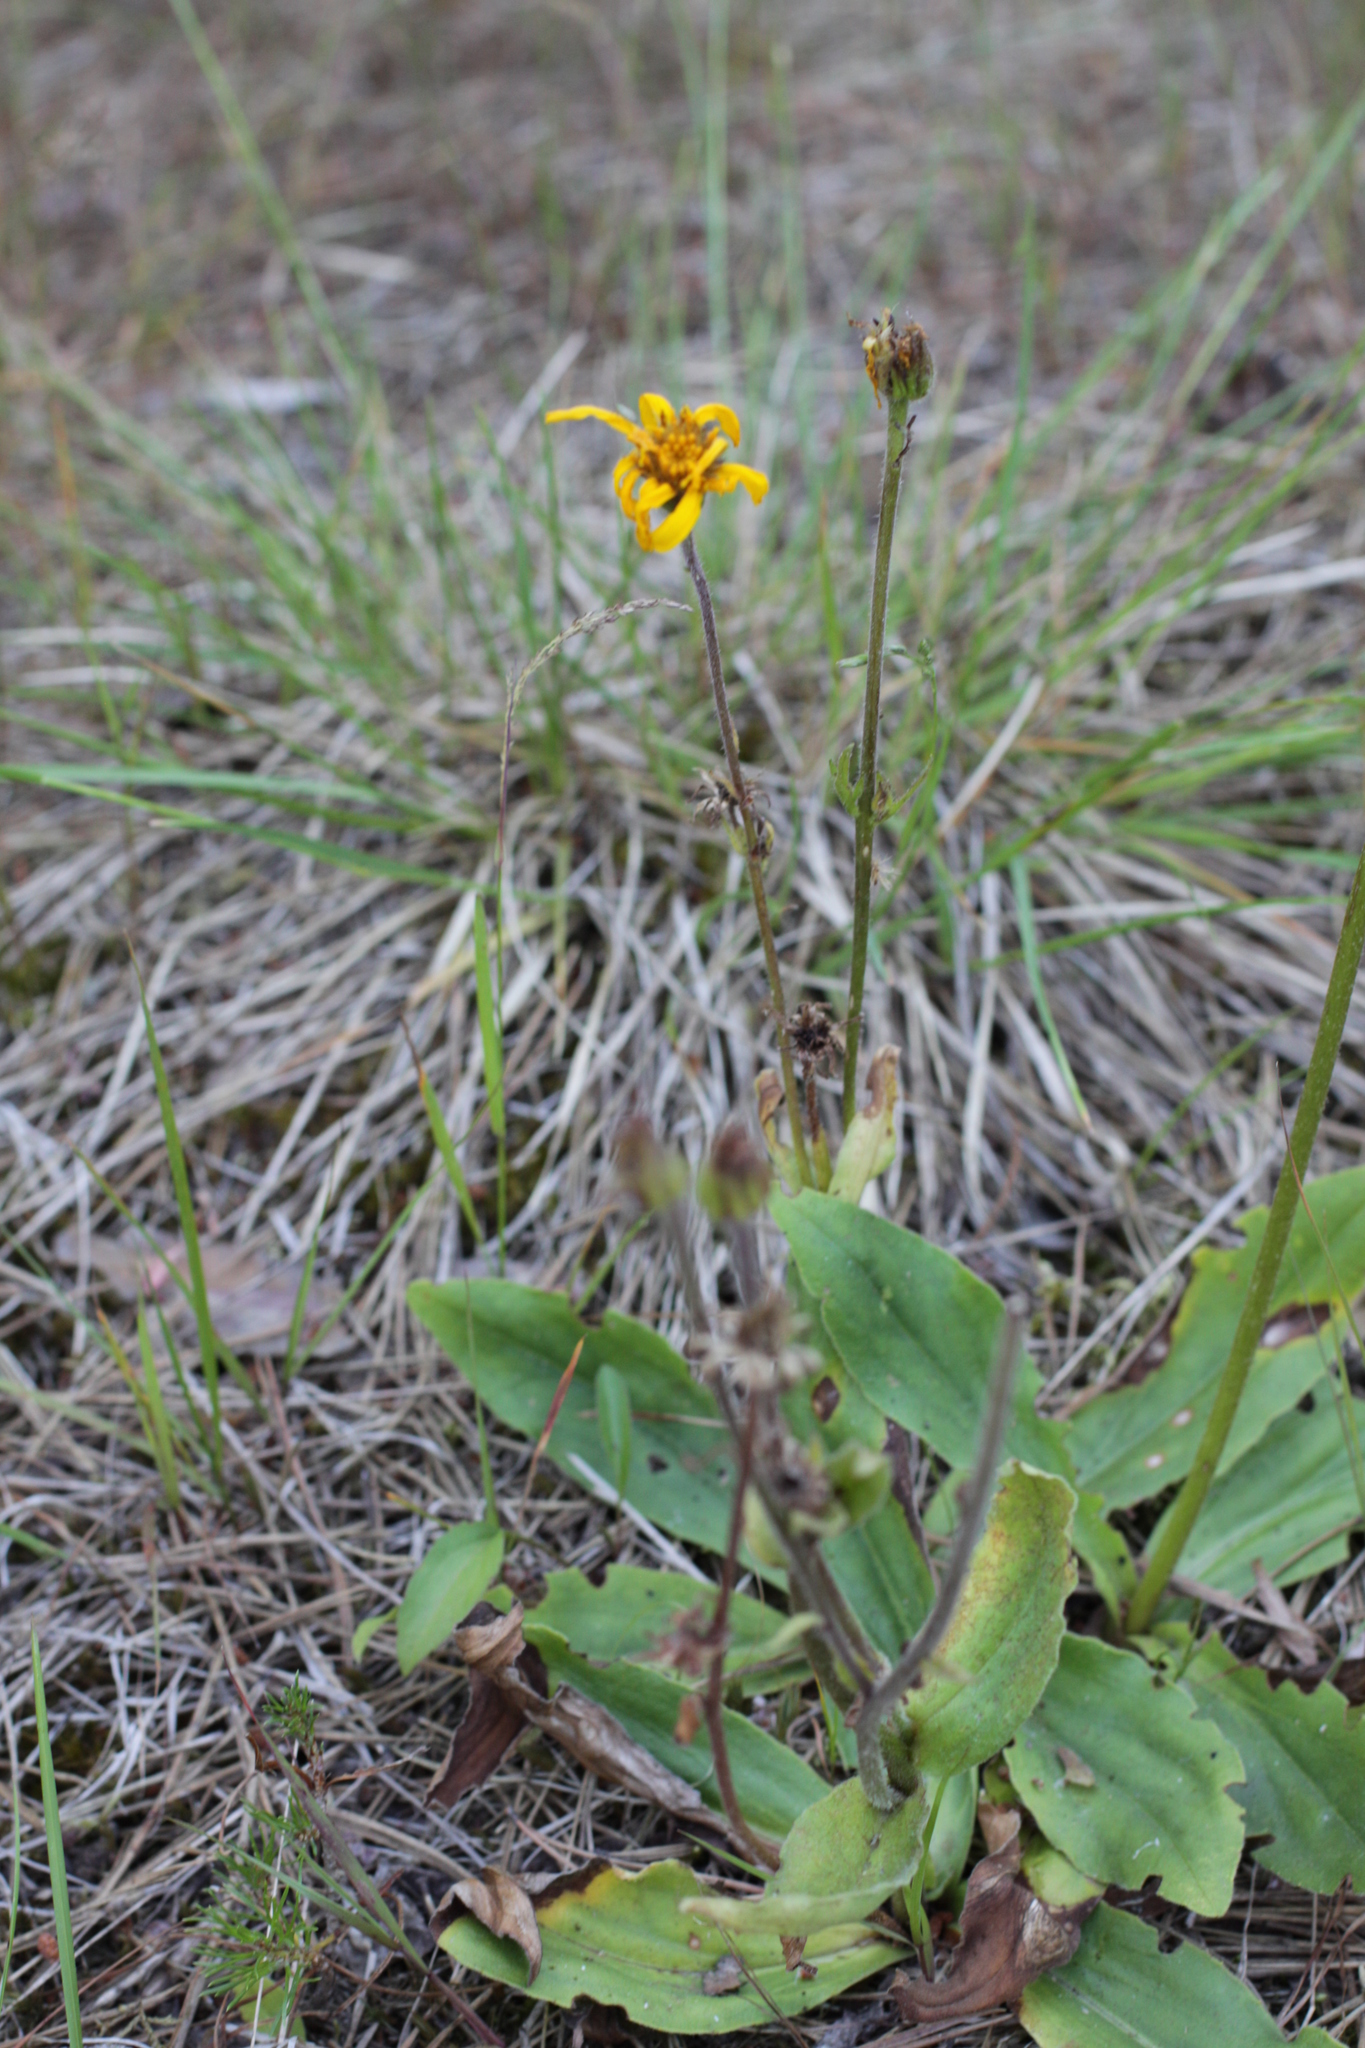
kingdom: Plantae
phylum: Tracheophyta
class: Magnoliopsida
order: Asterales
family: Asteraceae
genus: Arnica
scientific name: Arnica montana
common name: Leopard's bane
